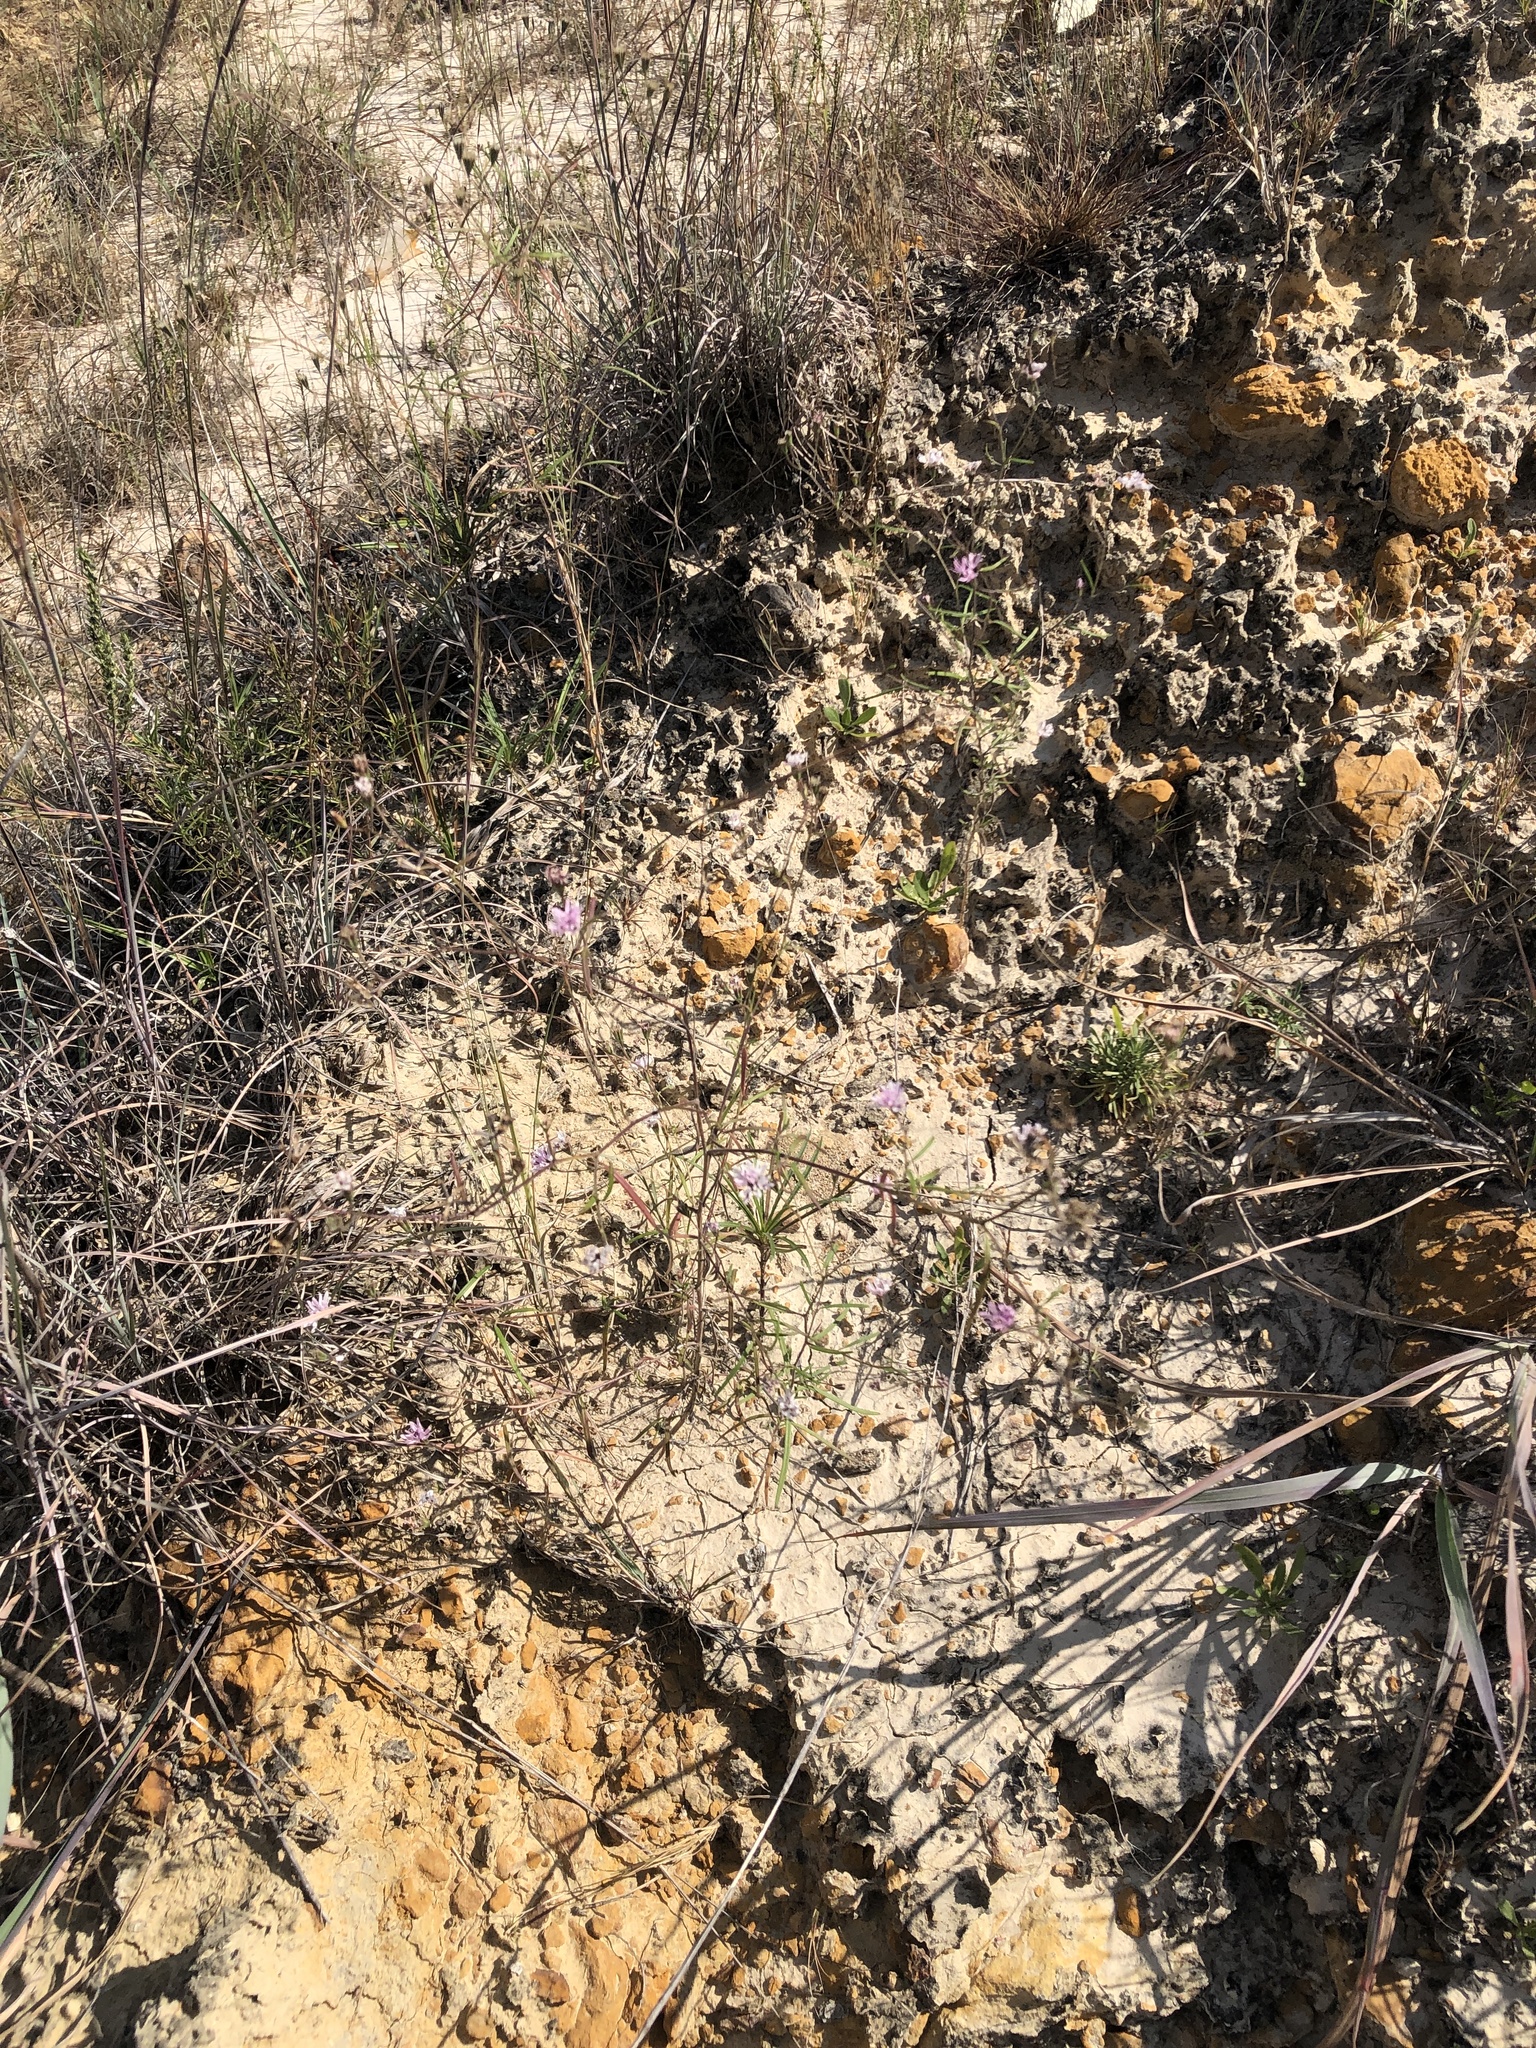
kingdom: Plantae
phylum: Tracheophyta
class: Magnoliopsida
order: Asterales
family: Asteraceae
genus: Palafoxia
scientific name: Palafoxia callosa
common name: Small palafox
